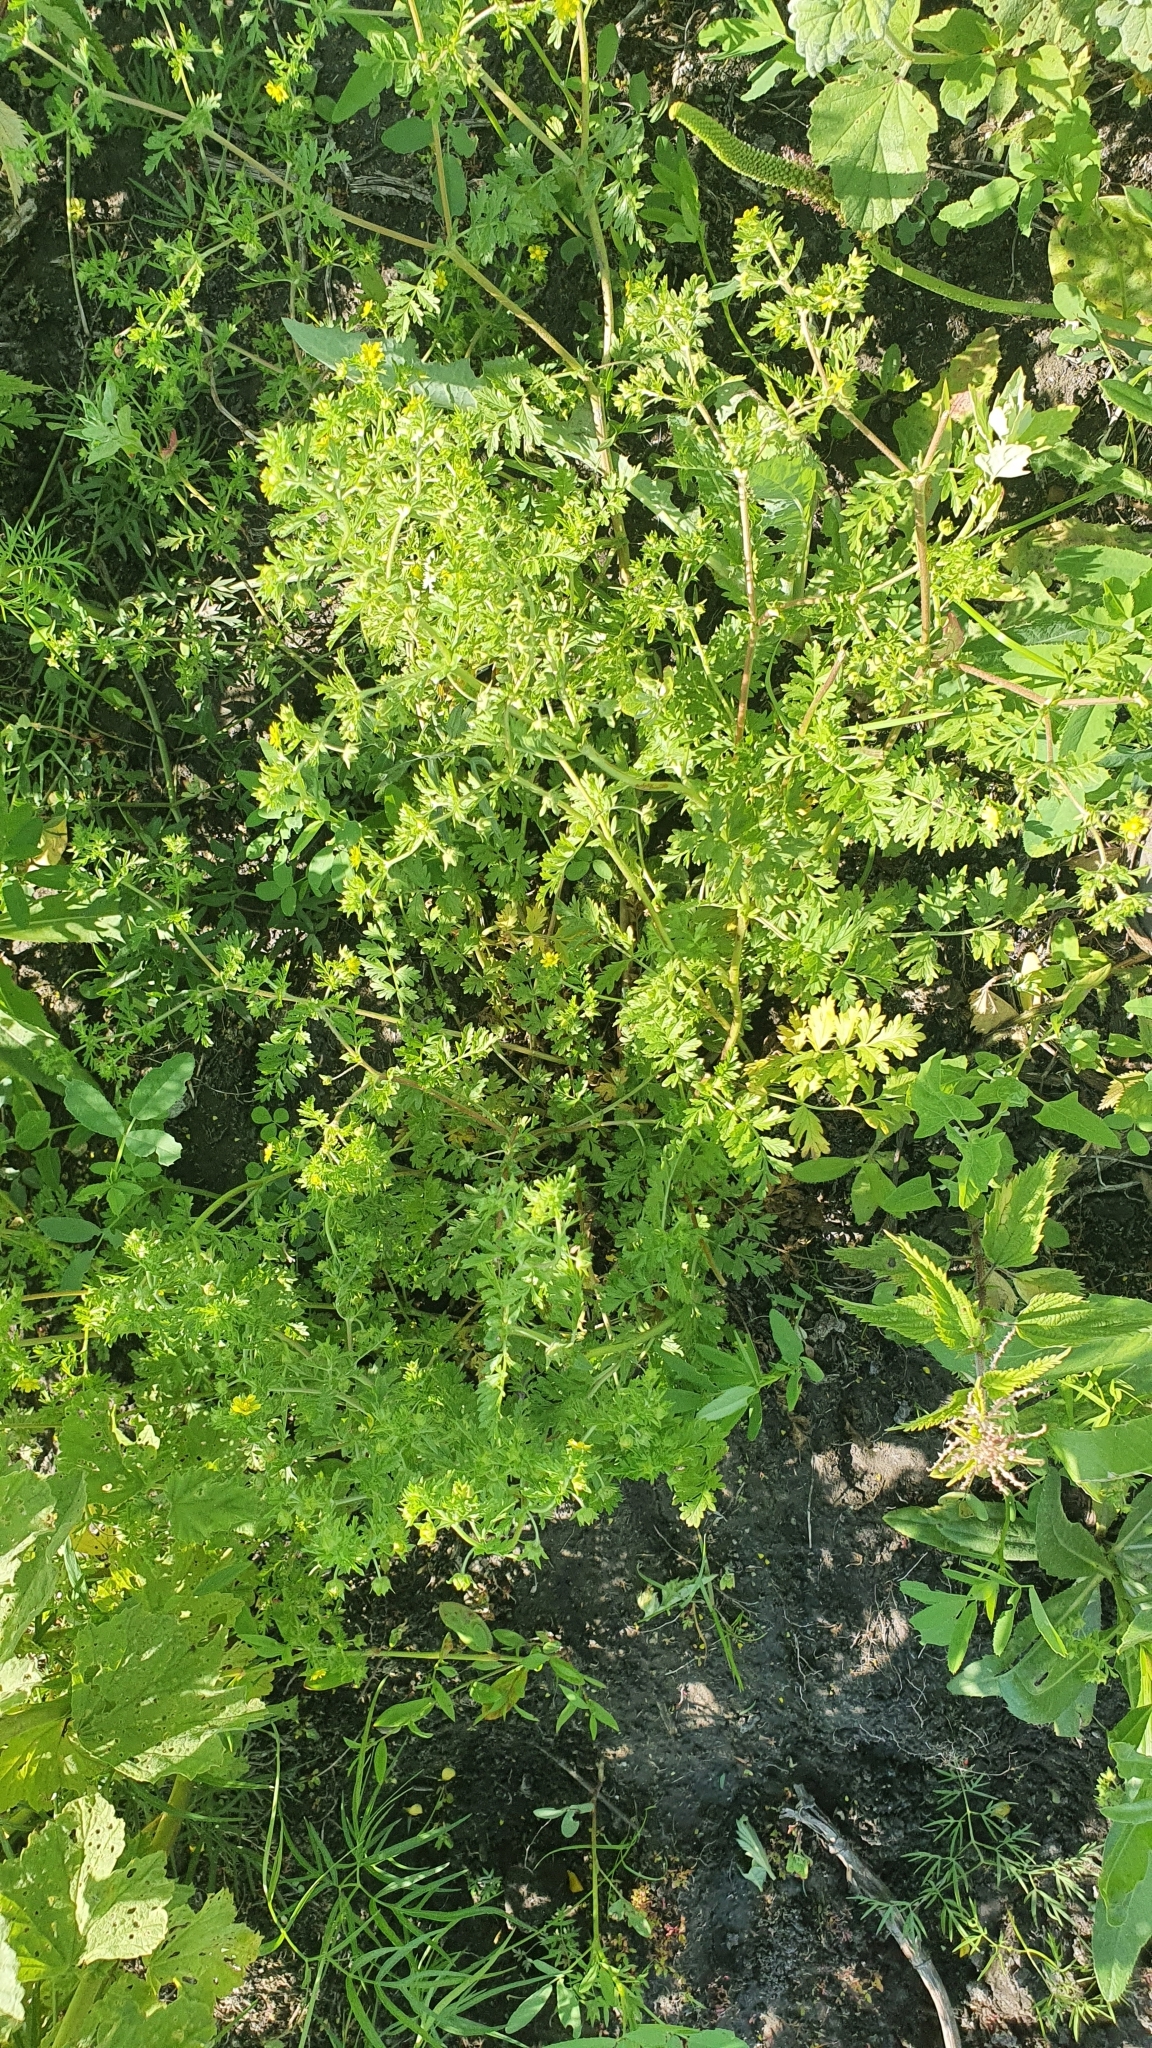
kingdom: Plantae
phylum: Tracheophyta
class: Magnoliopsida
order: Rosales
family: Rosaceae
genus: Potentilla
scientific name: Potentilla supina
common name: Prostrate cinquefoil
